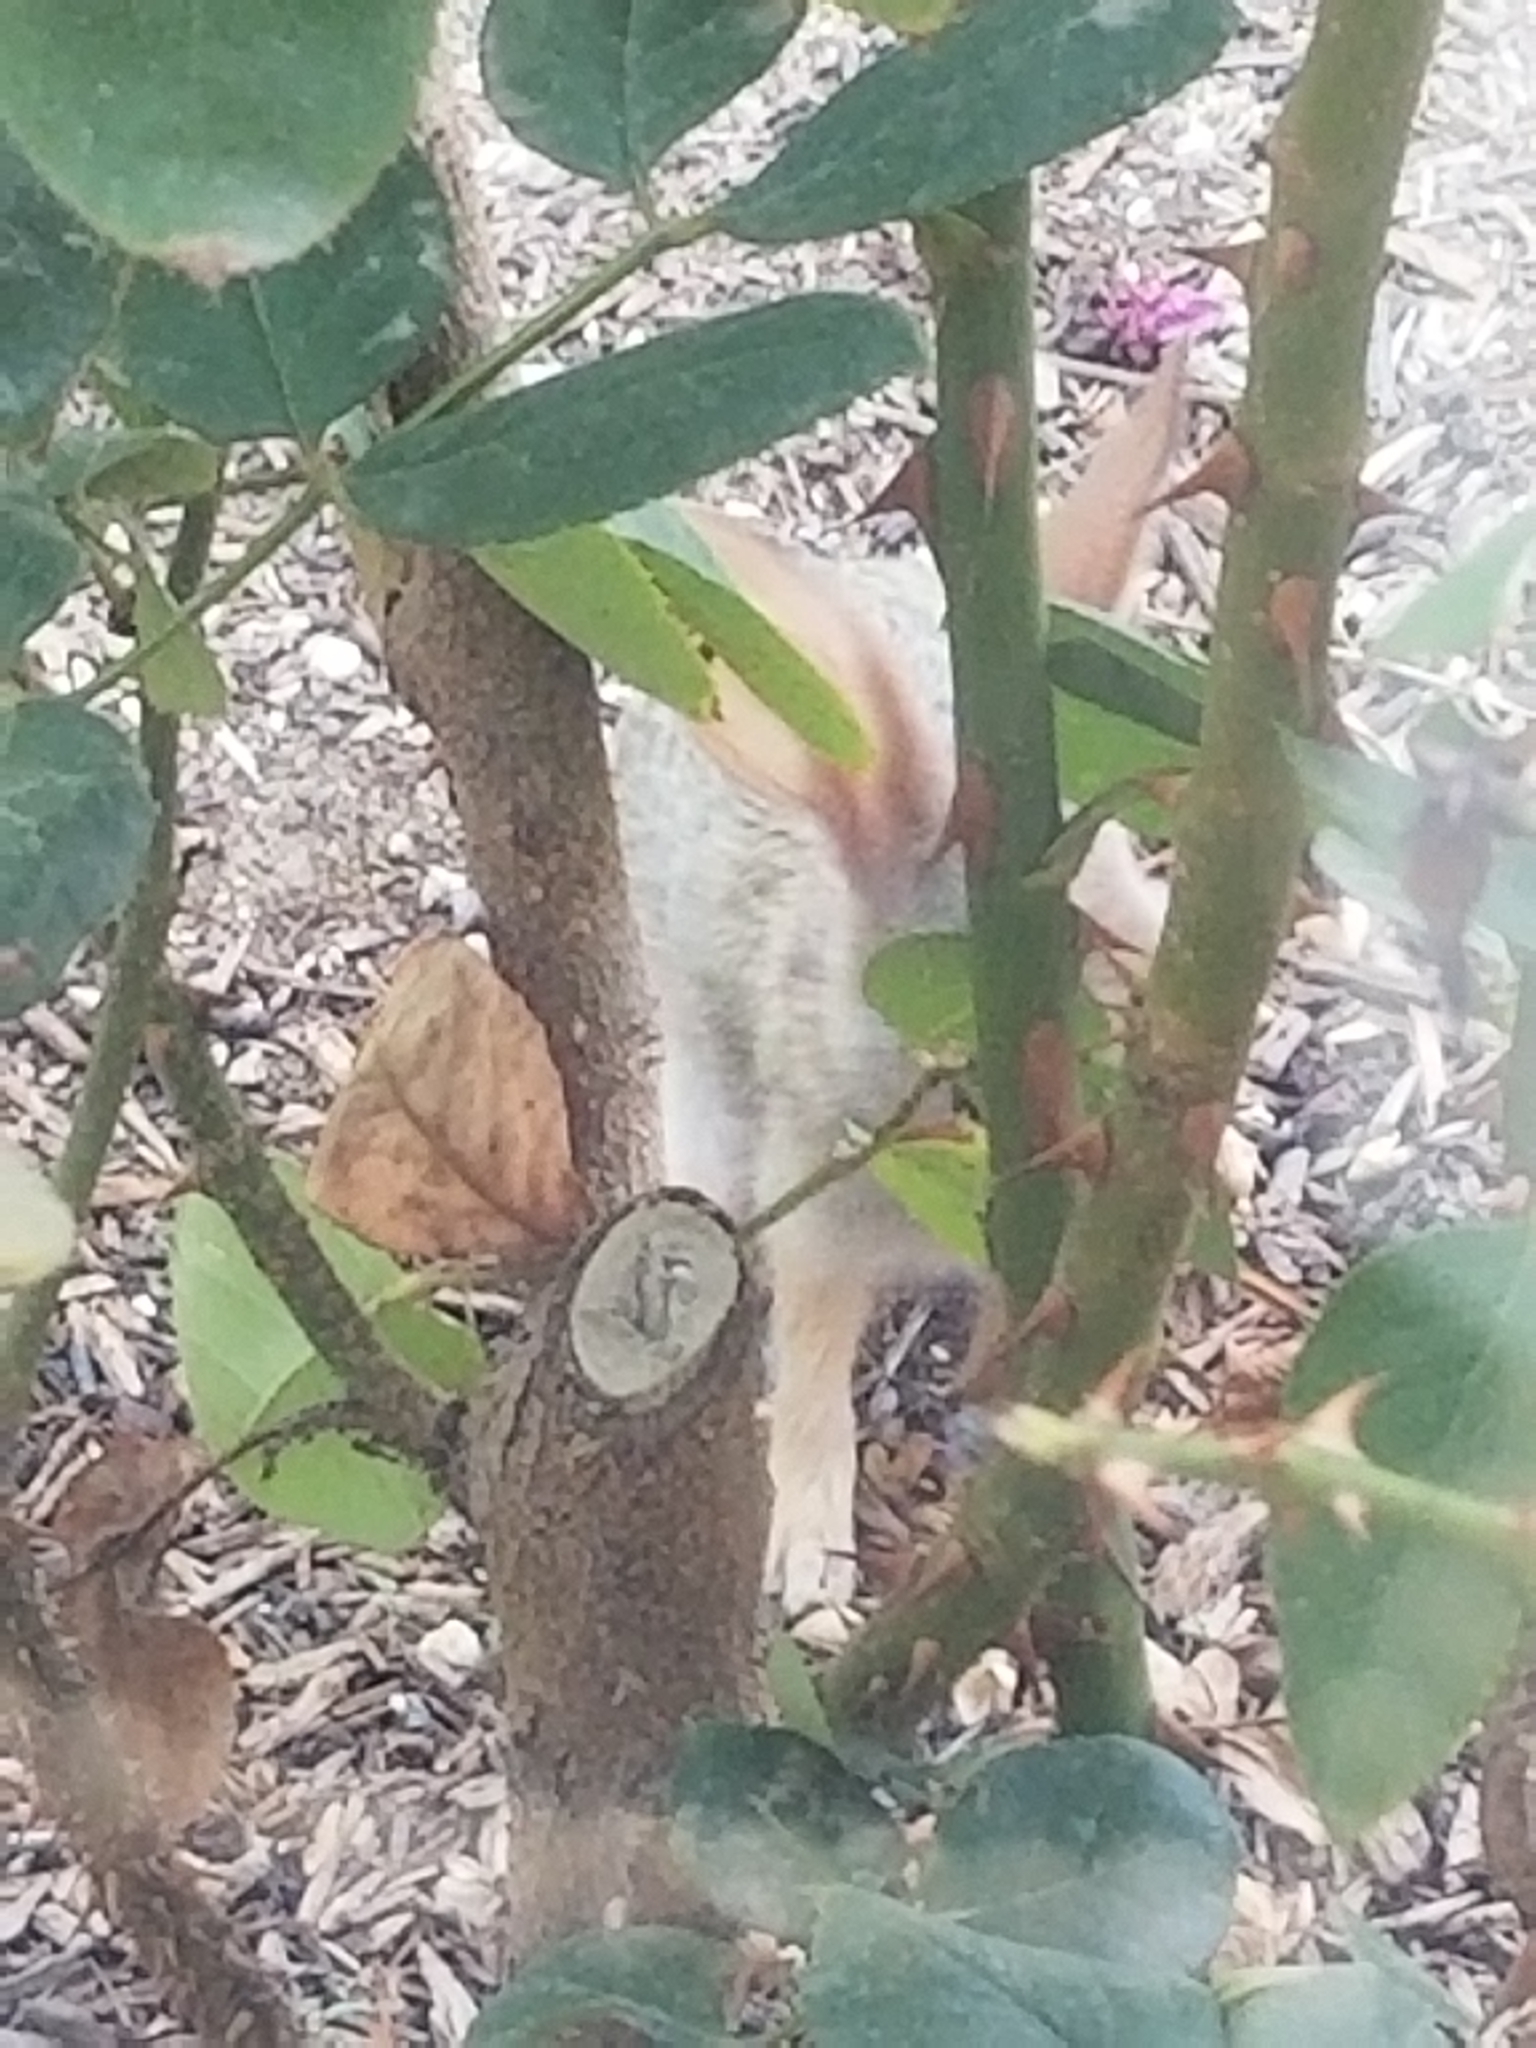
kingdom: Animalia
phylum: Chordata
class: Mammalia
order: Lagomorpha
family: Leporidae
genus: Sylvilagus
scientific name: Sylvilagus audubonii
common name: Desert cottontail
